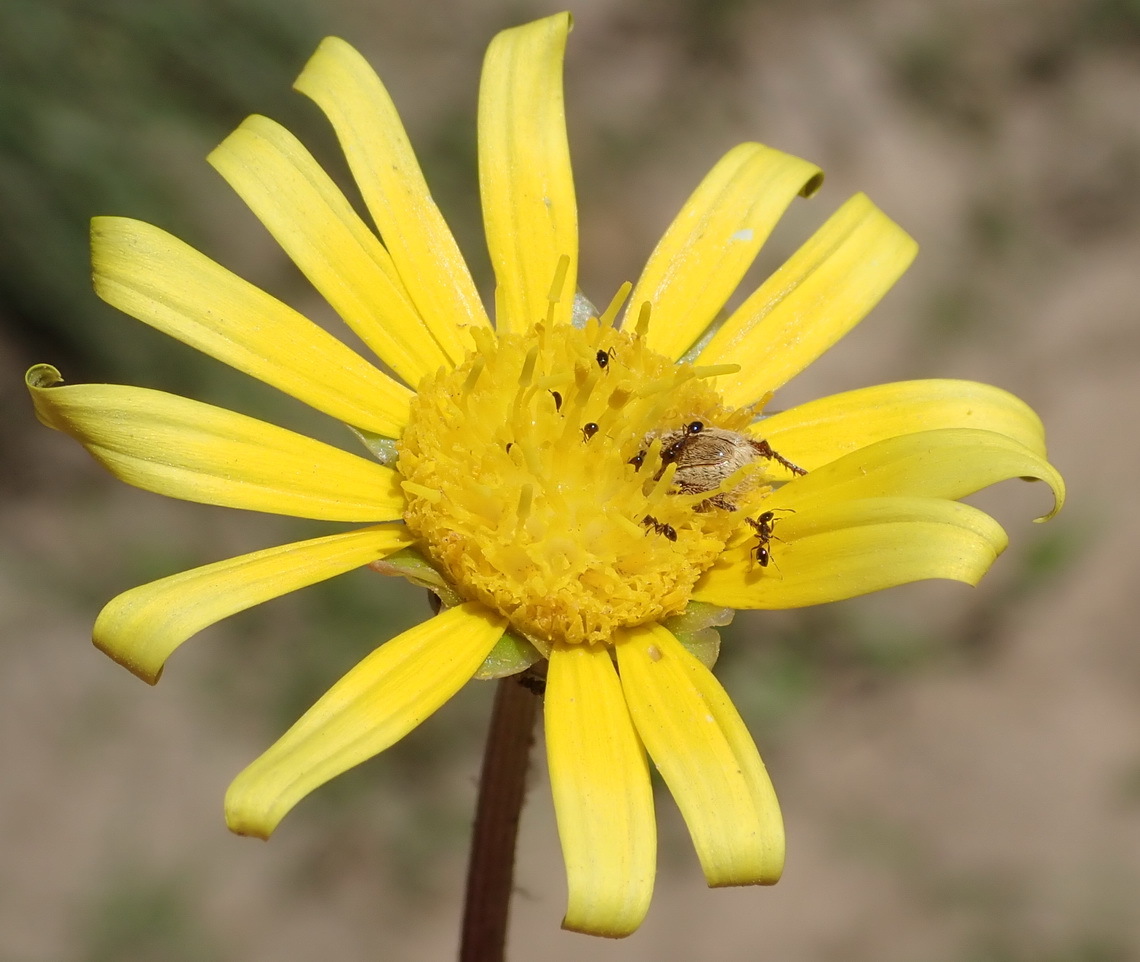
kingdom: Plantae
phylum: Tracheophyta
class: Magnoliopsida
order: Asterales
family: Asteraceae
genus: Arctotheca
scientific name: Arctotheca calendula
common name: Capeweed
